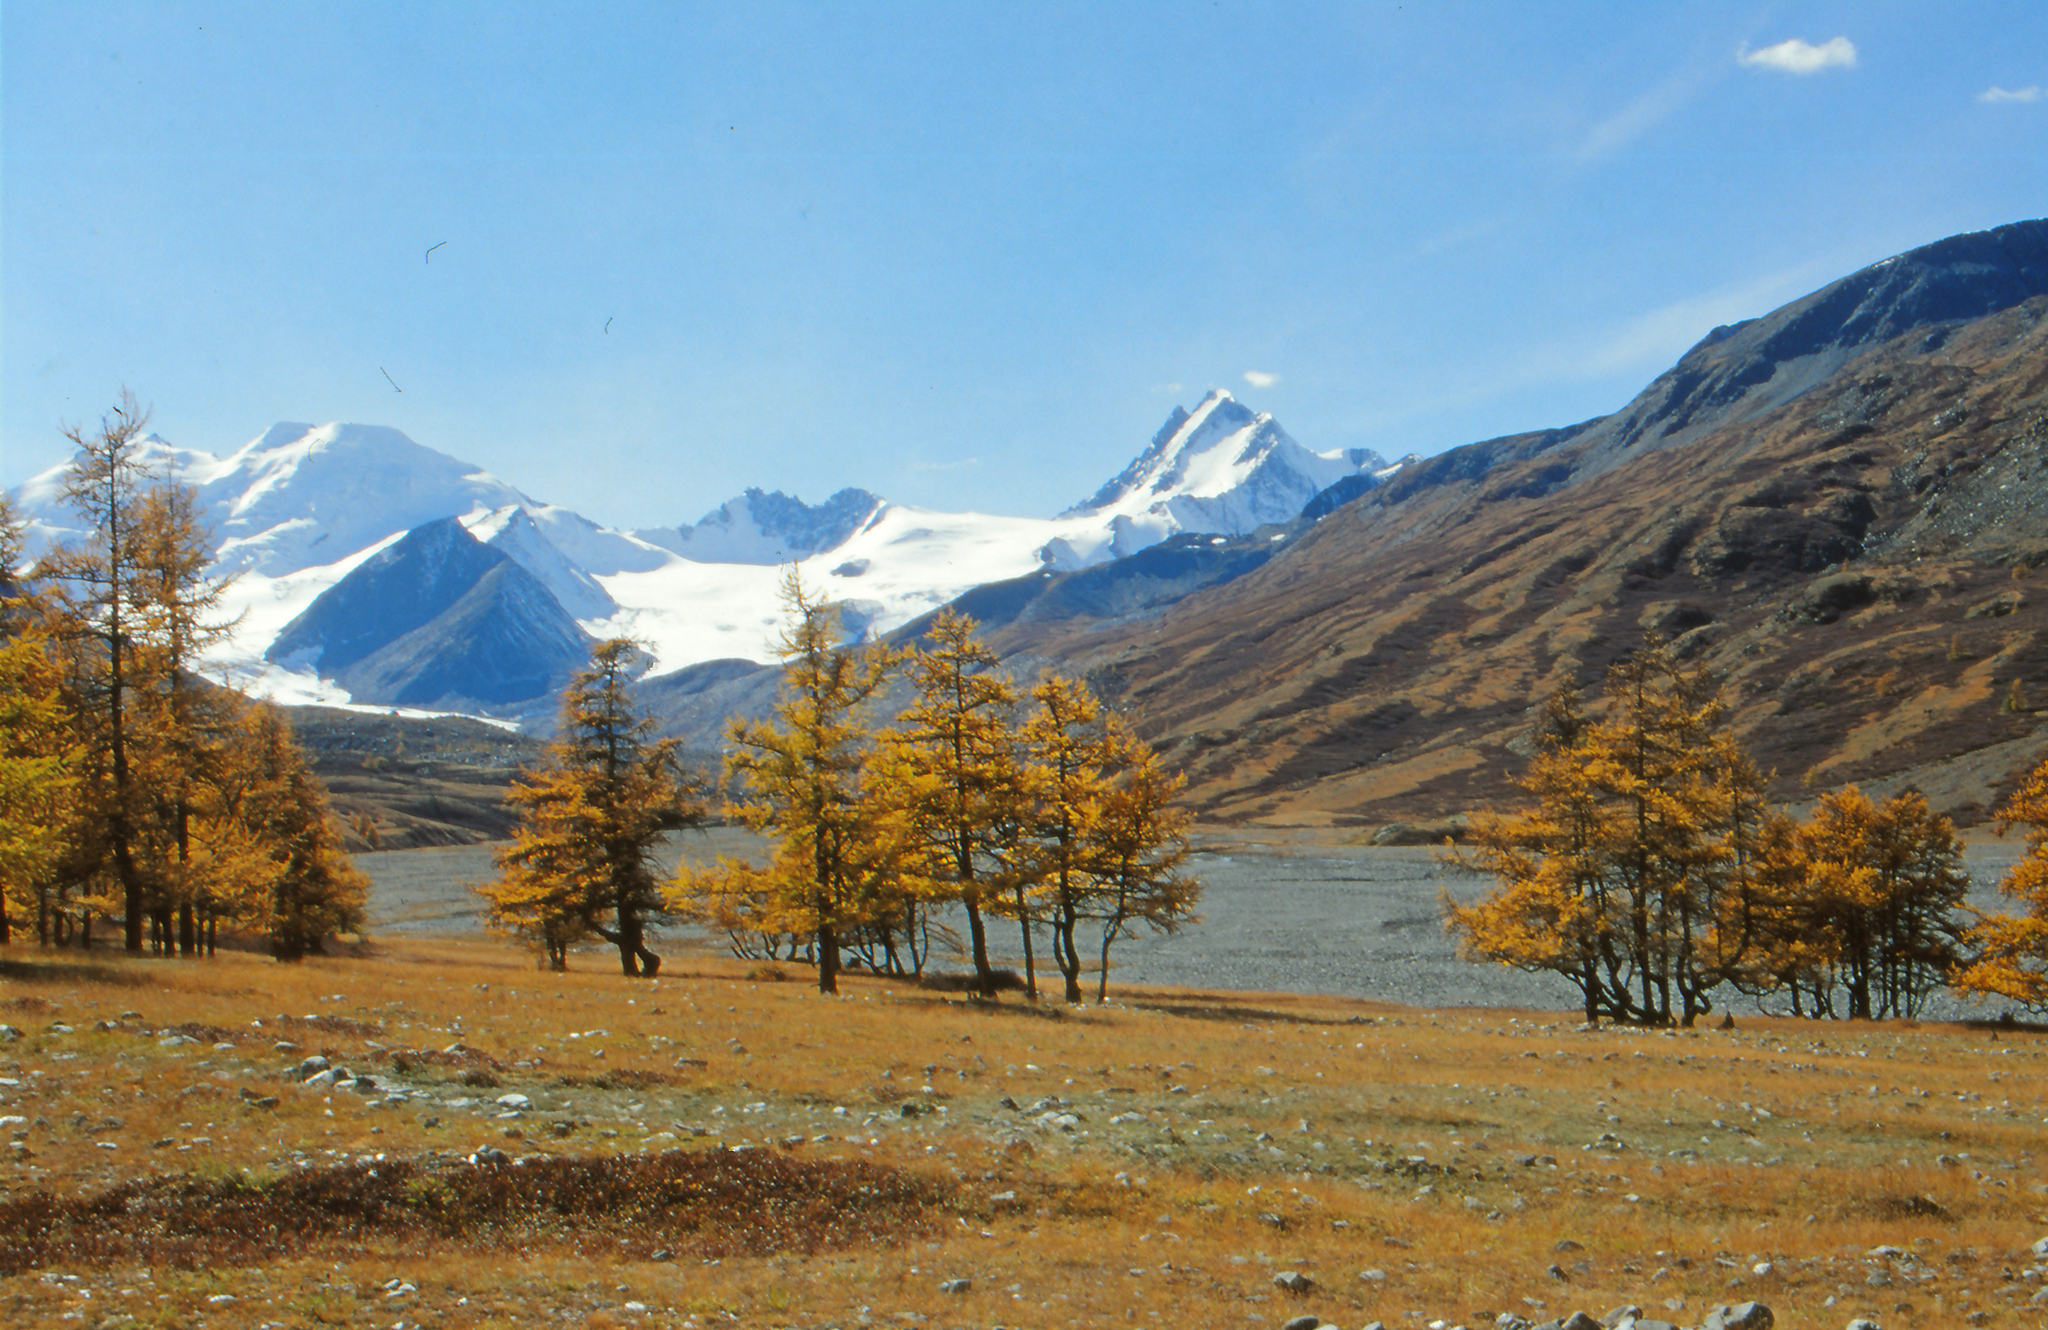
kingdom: Plantae
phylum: Tracheophyta
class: Pinopsida
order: Pinales
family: Pinaceae
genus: Larix
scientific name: Larix sibirica
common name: Siberian larch
